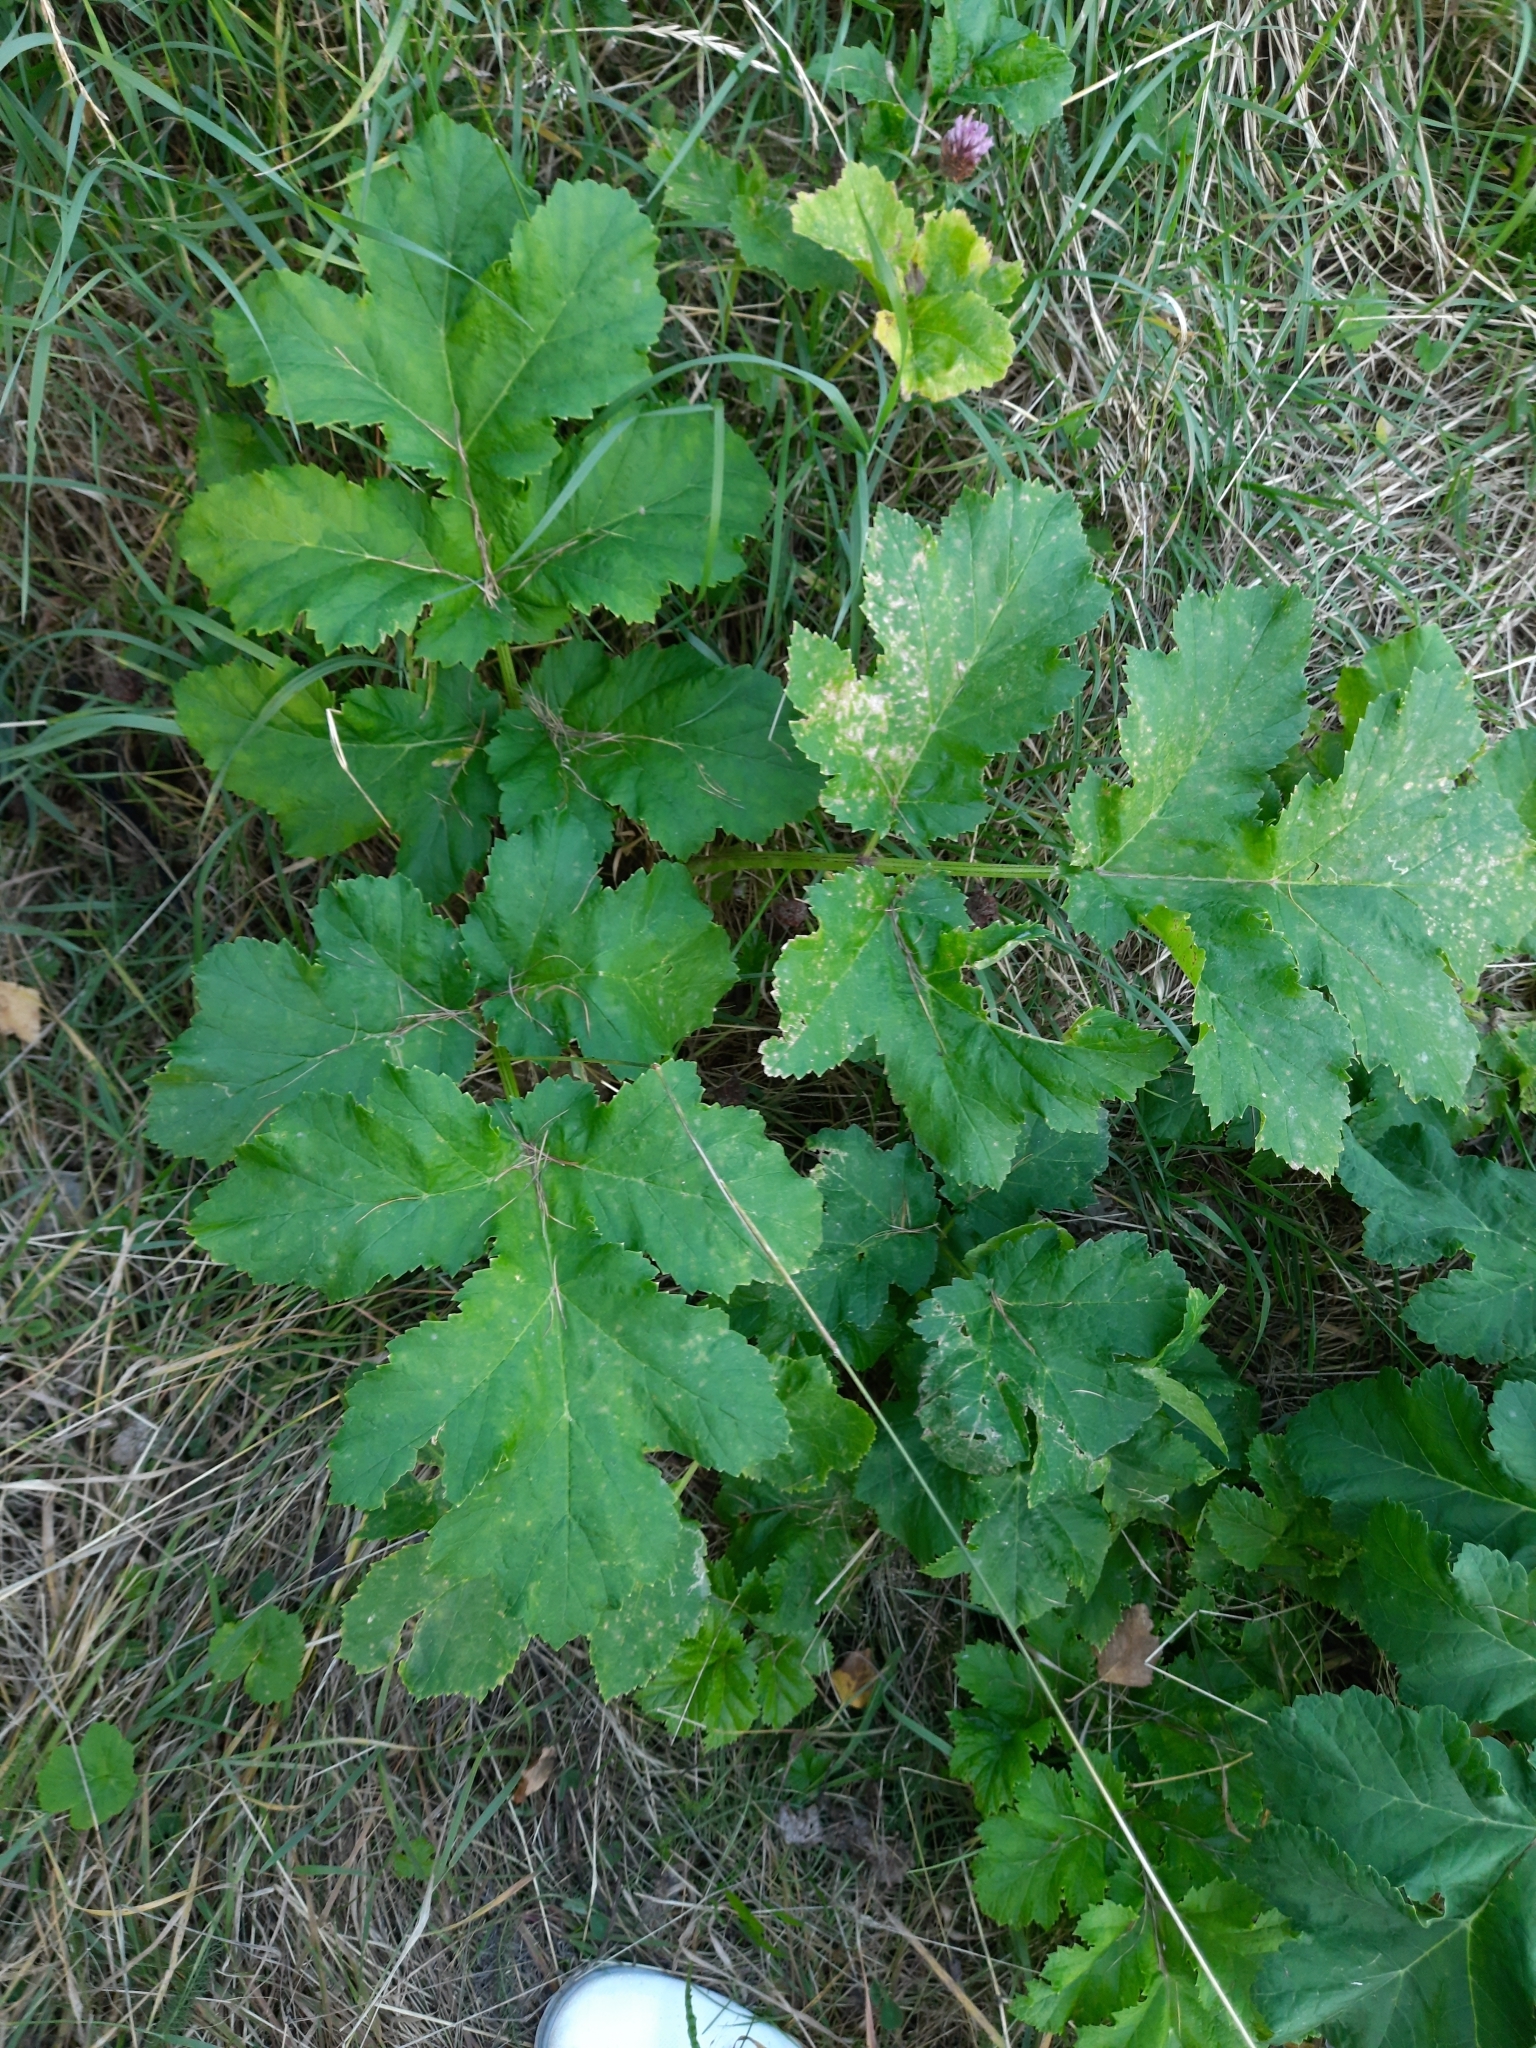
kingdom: Plantae
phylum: Tracheophyta
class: Magnoliopsida
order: Apiales
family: Apiaceae
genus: Heracleum
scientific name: Heracleum sosnowskyi
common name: Sosnowsky's hogweed
